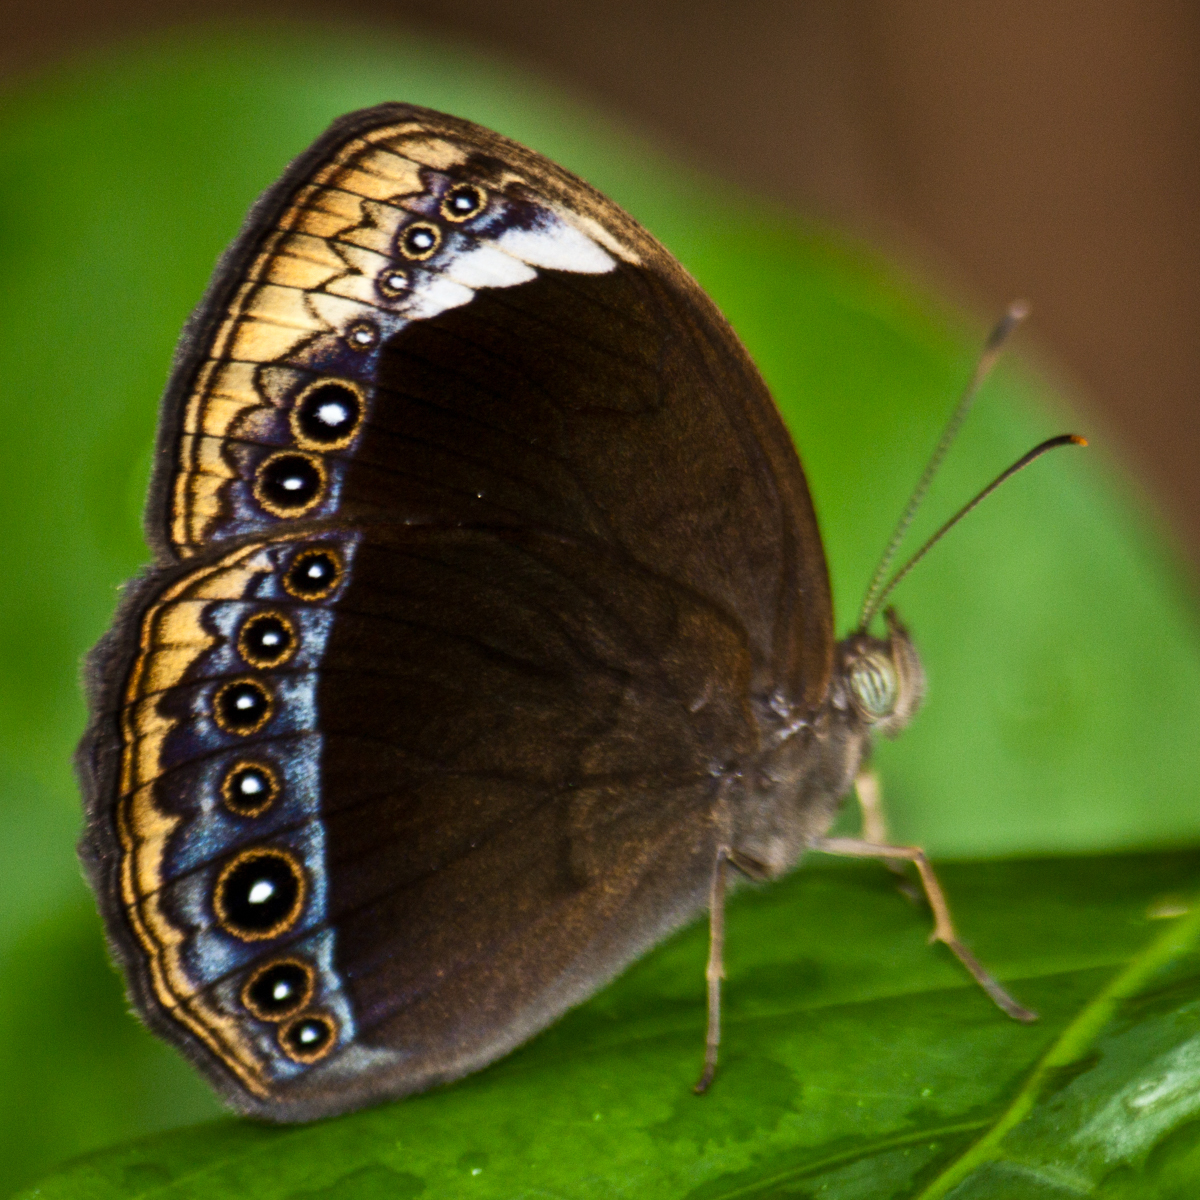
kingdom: Animalia
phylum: Arthropoda
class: Insecta
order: Lepidoptera
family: Nymphalidae
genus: Mycalesis
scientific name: Mycalesis anaxioides
